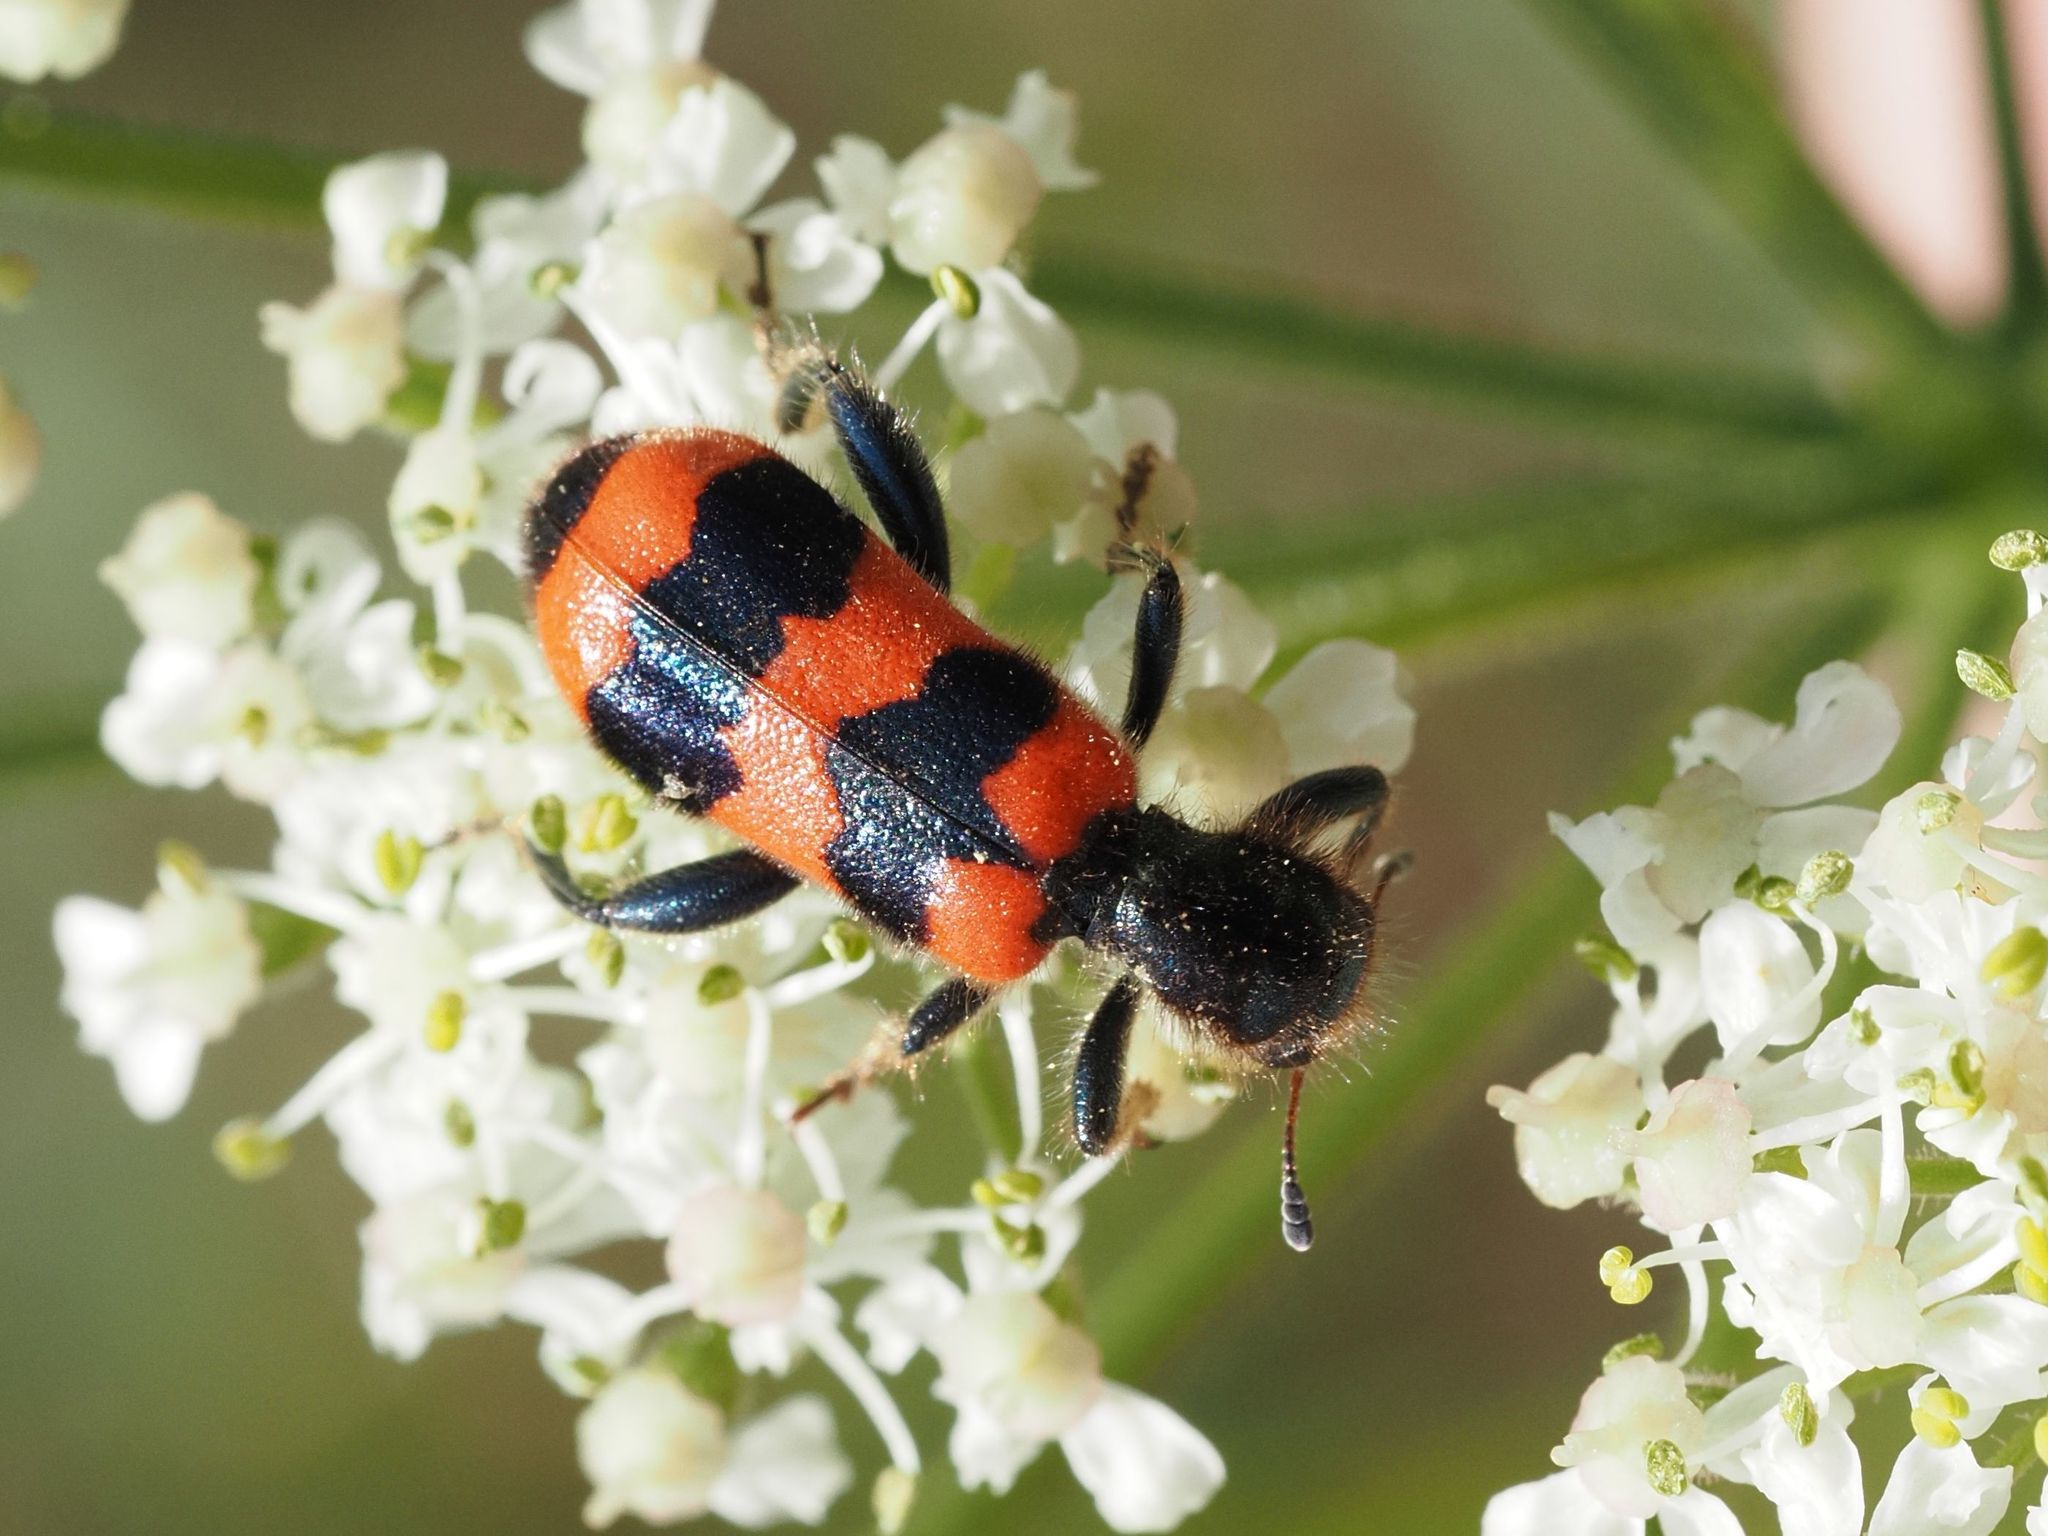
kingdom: Animalia
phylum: Arthropoda
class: Insecta
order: Coleoptera
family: Cleridae
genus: Trichodes
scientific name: Trichodes apiarius
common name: Bee-eating beetle
